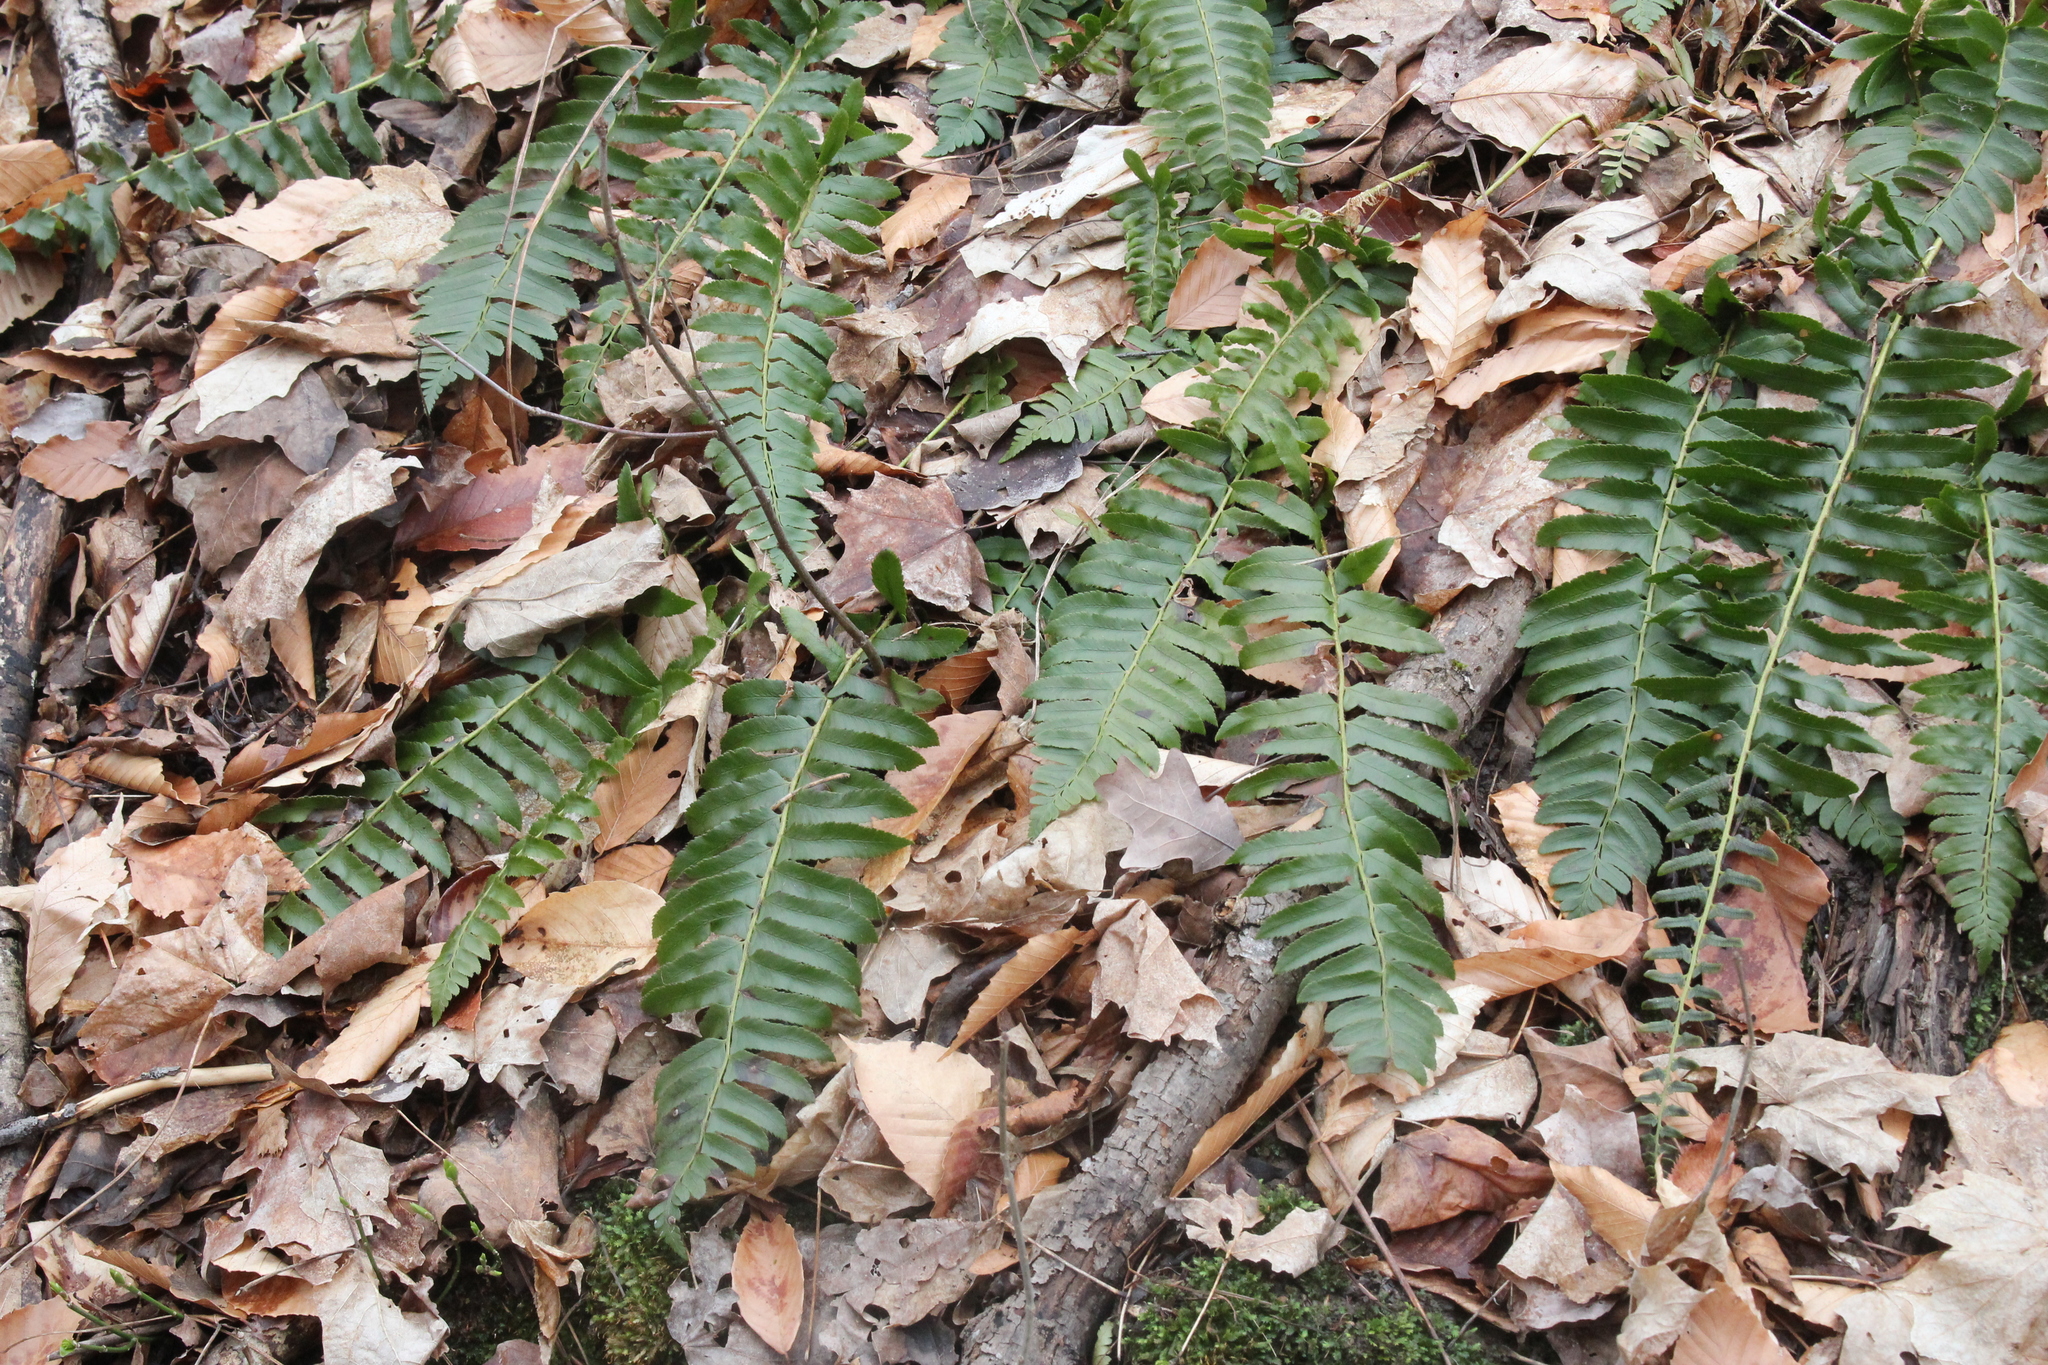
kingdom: Plantae
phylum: Tracheophyta
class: Polypodiopsida
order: Polypodiales
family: Dryopteridaceae
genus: Polystichum
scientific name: Polystichum acrostichoides
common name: Christmas fern
